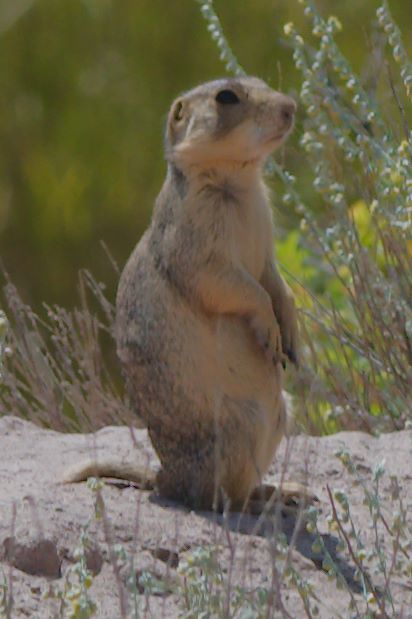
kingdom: Animalia
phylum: Chordata
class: Mammalia
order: Rodentia
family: Sciuridae
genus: Cynomys
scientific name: Cynomys gunnisoni
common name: Gunnison's prairie dog
